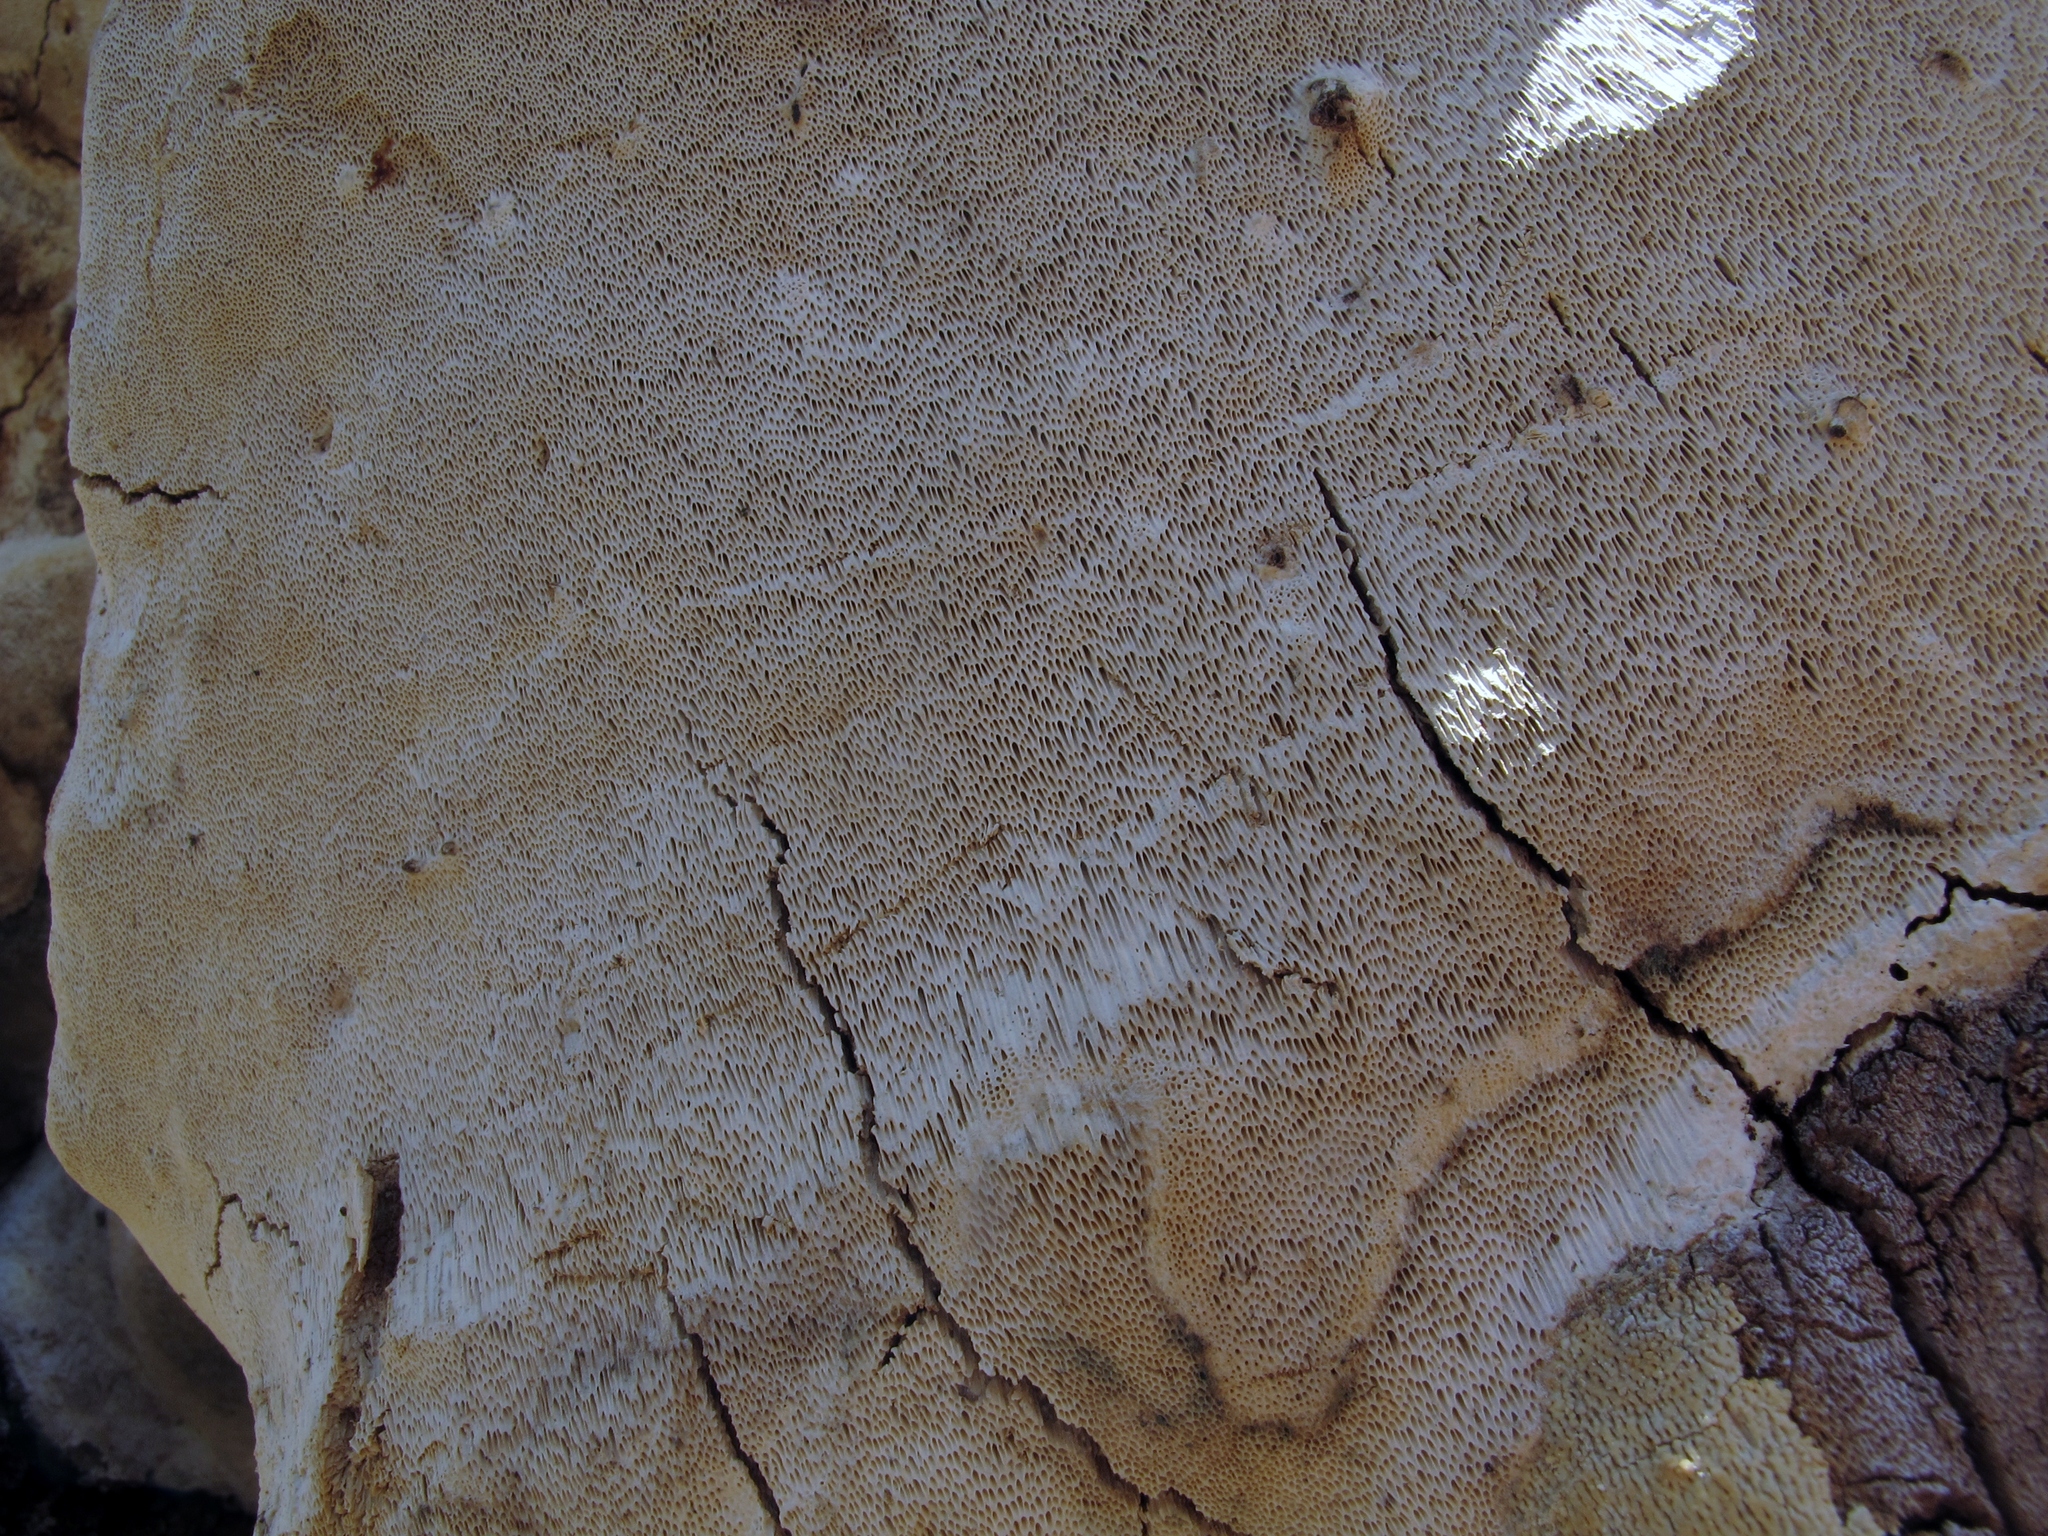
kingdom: Fungi
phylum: Basidiomycota
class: Agaricomycetes
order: Polyporales
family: Polyporaceae
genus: Perenniporia
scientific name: Perenniporia fraxinophila
